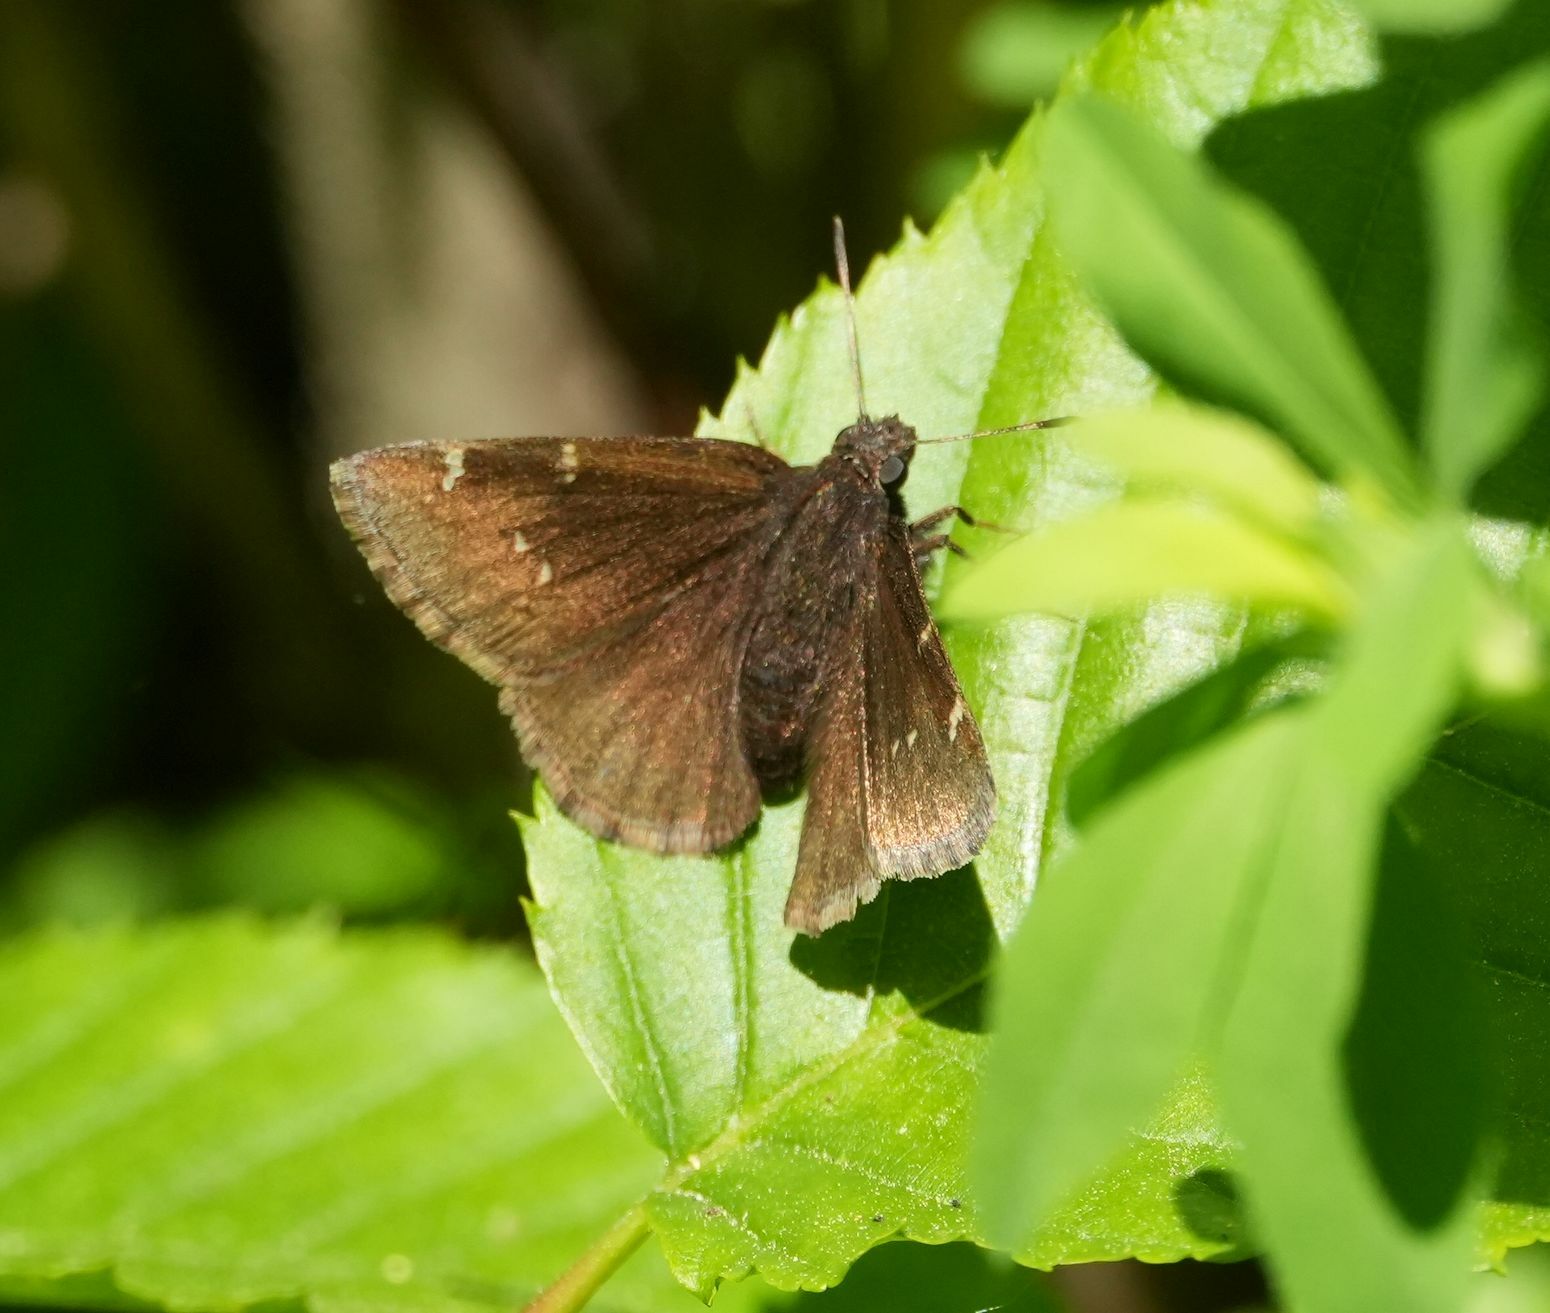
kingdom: Animalia
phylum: Arthropoda
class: Insecta
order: Lepidoptera
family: Hesperiidae
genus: Thorybes
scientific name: Thorybes pylades
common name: Northern cloudywing
